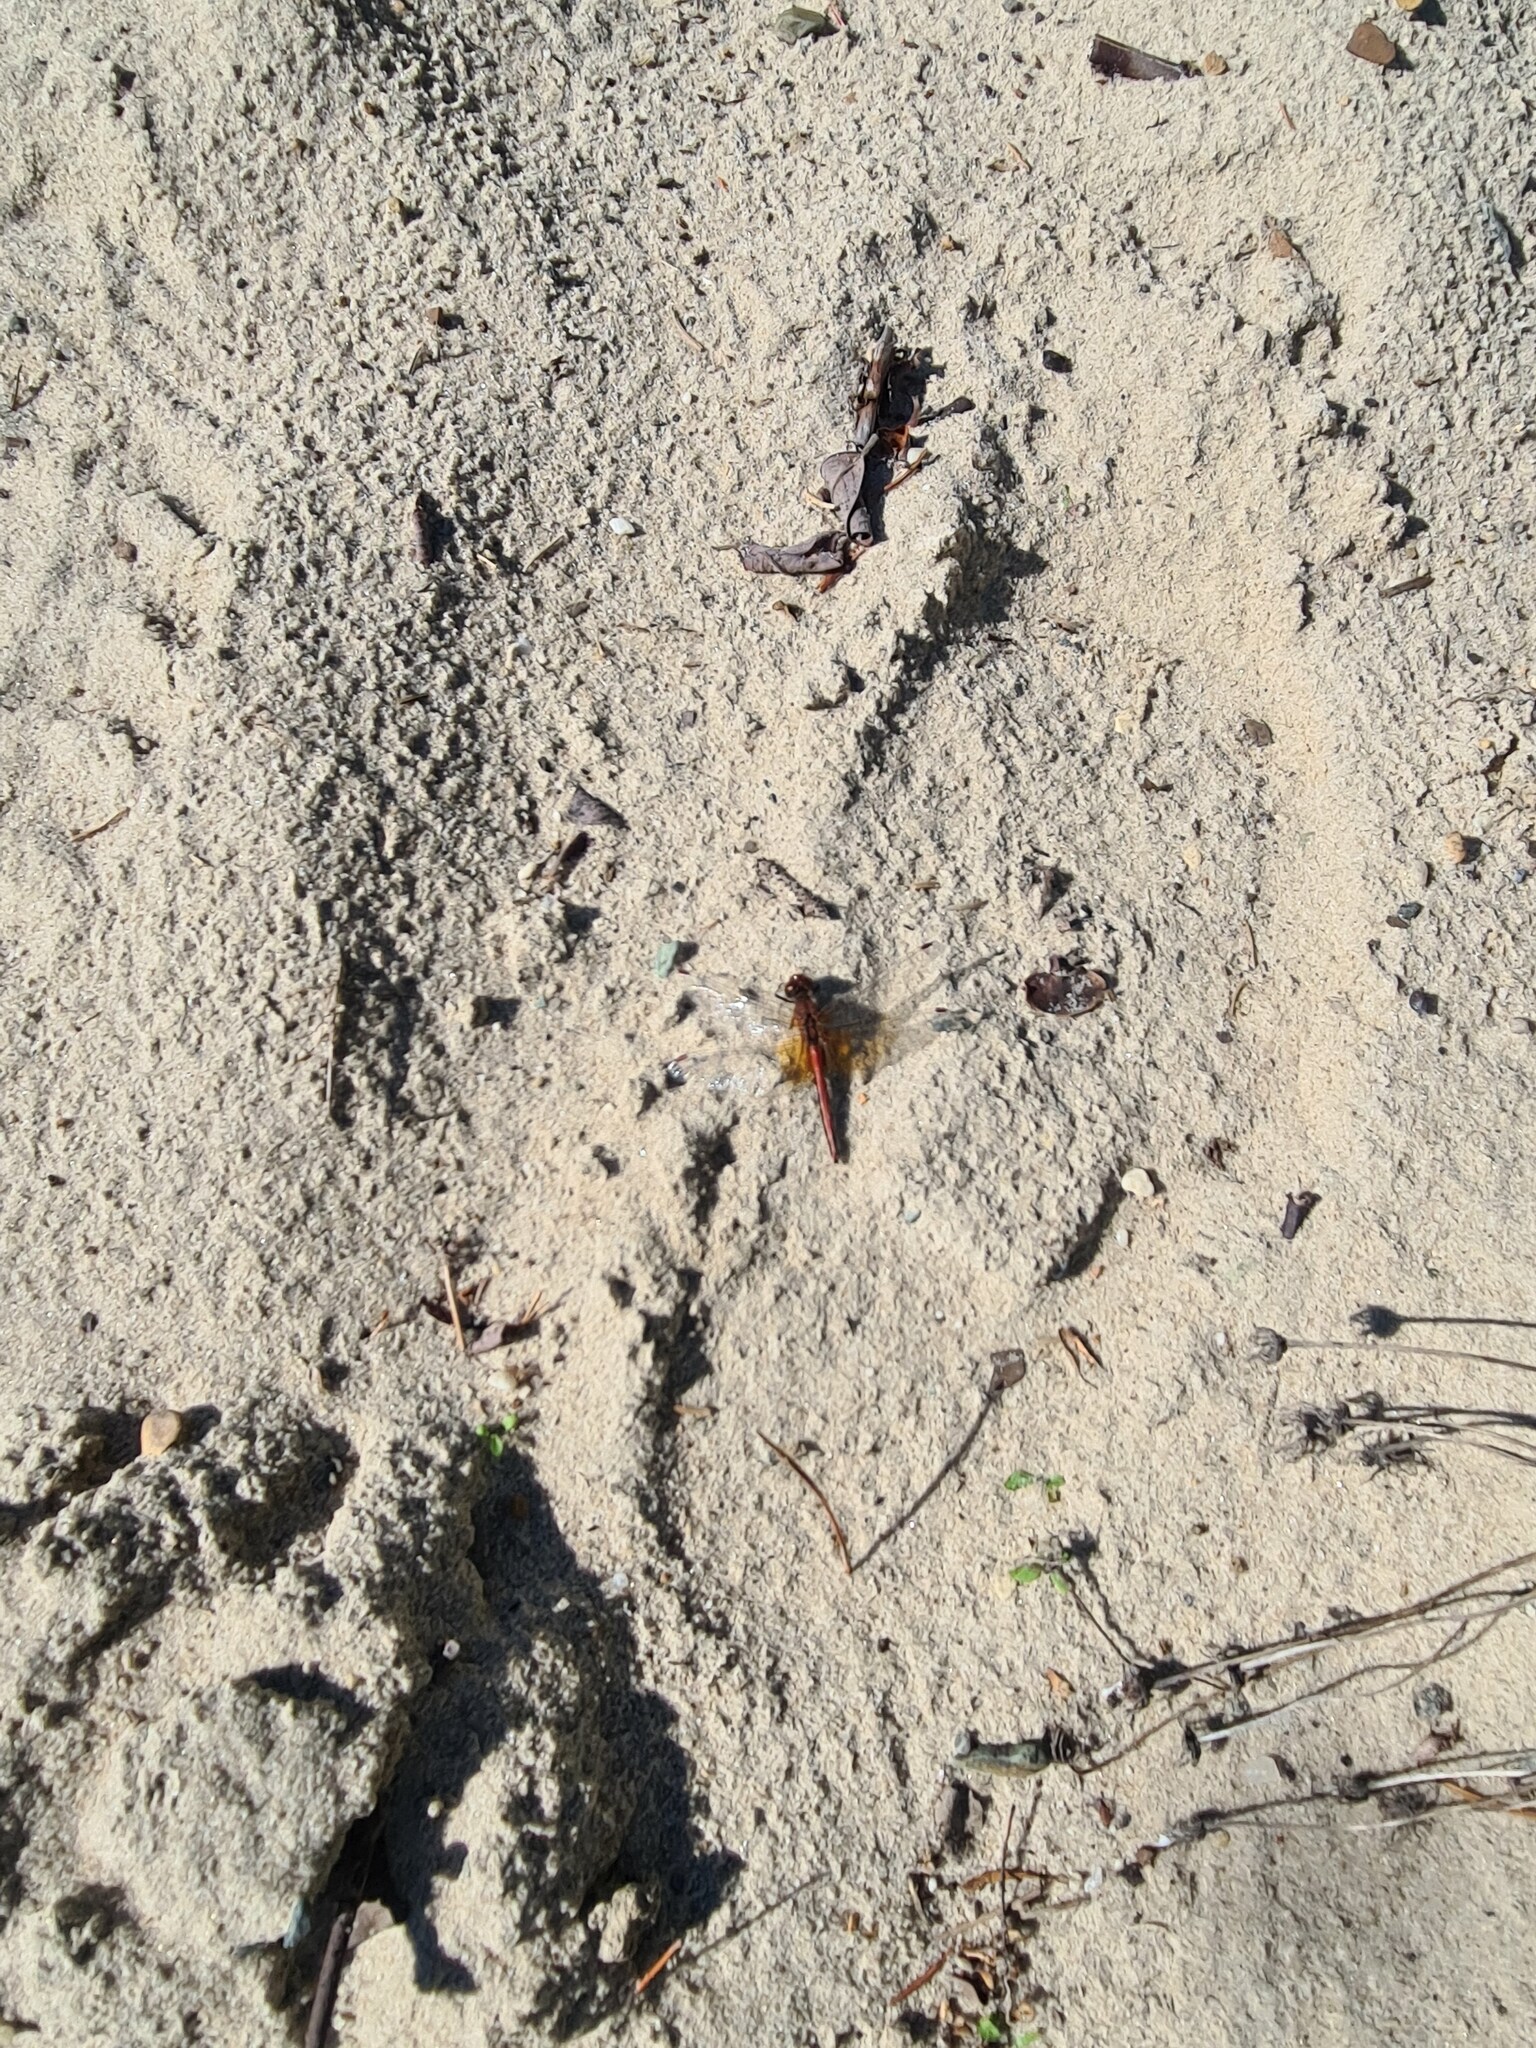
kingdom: Animalia
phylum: Arthropoda
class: Insecta
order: Odonata
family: Libellulidae
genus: Sympetrum
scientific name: Sympetrum flaveolum
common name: Yellow-winged darter
